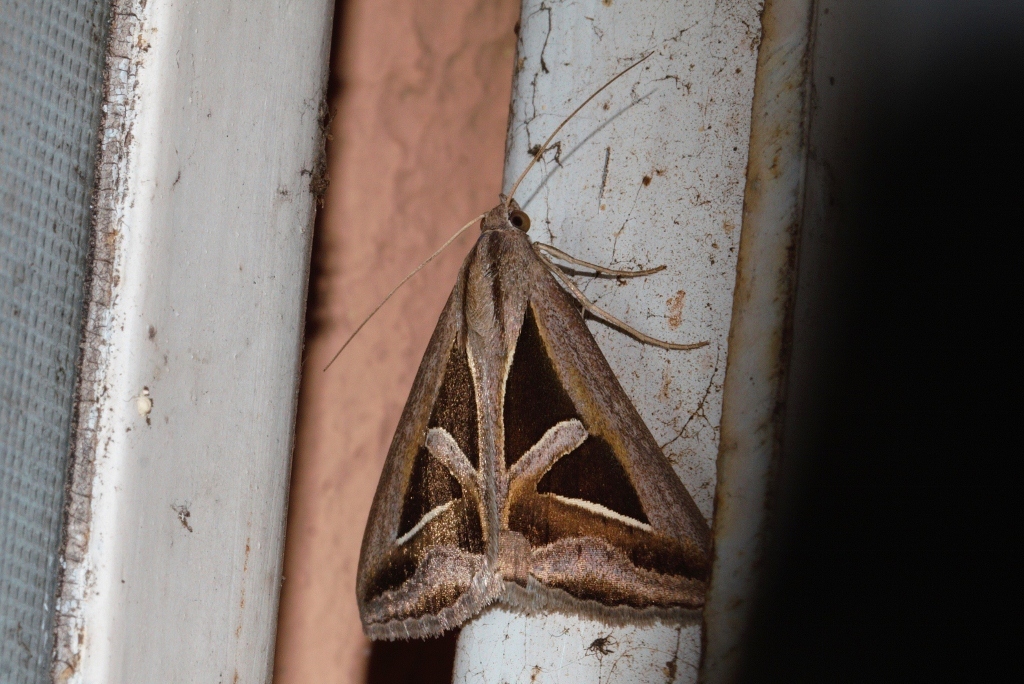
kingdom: Animalia
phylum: Arthropoda
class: Insecta
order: Lepidoptera
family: Erebidae
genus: Trigonodes
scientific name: Trigonodes hyppasia
